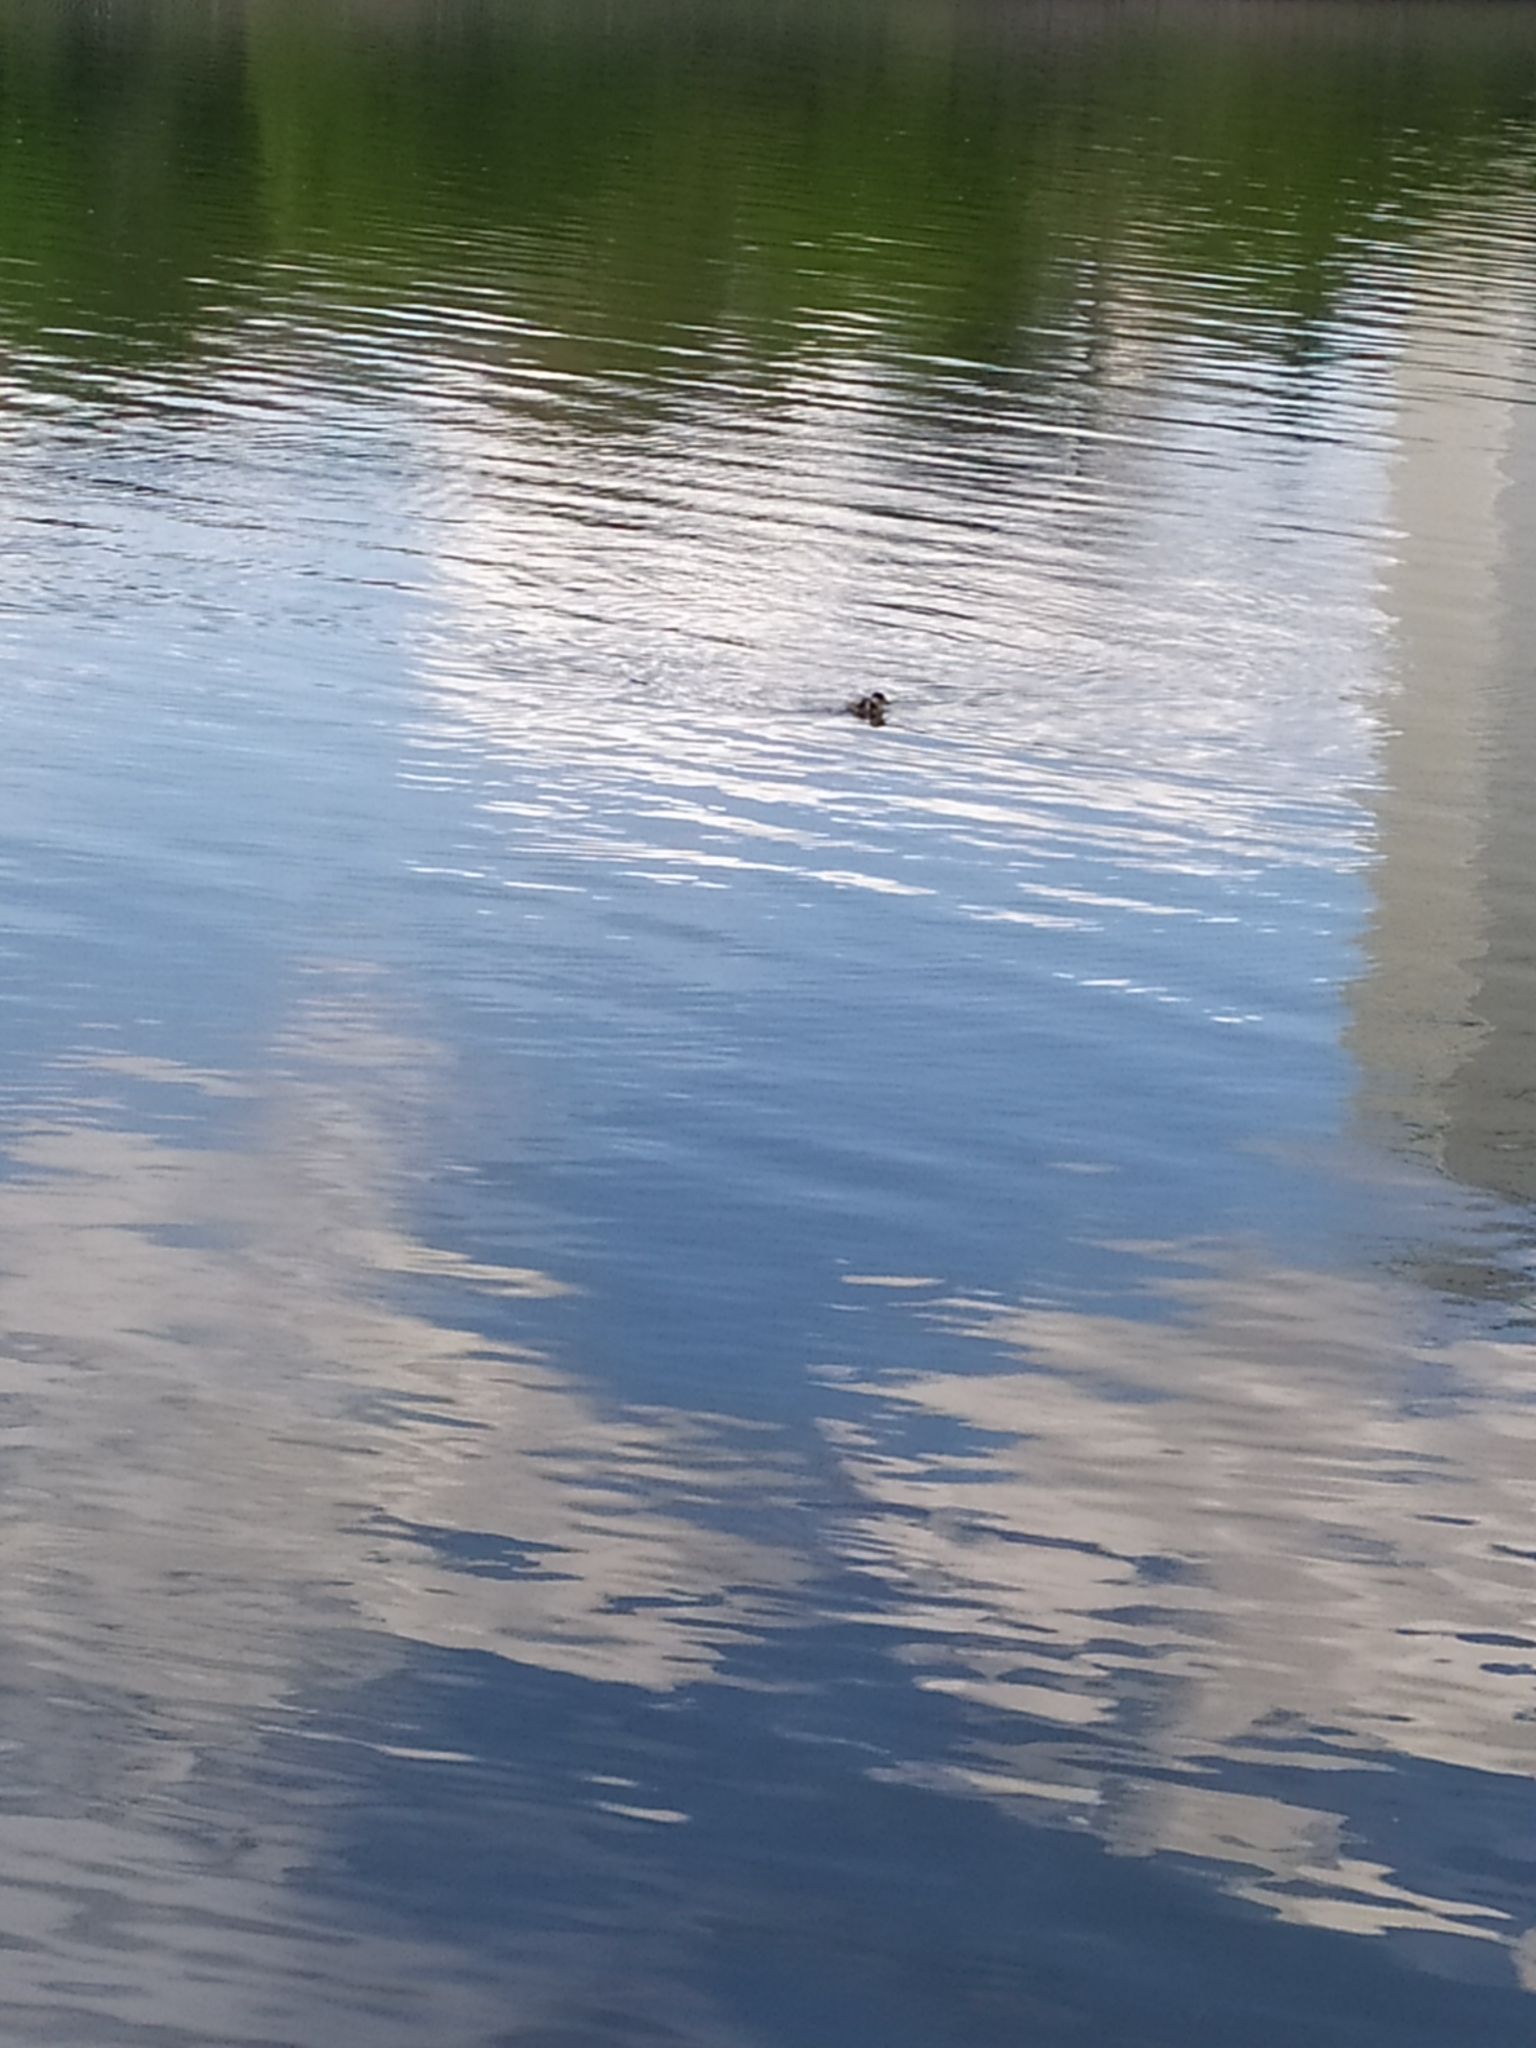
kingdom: Animalia
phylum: Chordata
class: Aves
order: Anseriformes
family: Anatidae
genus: Tadorna
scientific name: Tadorna ferruginea
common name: Ruddy shelduck
